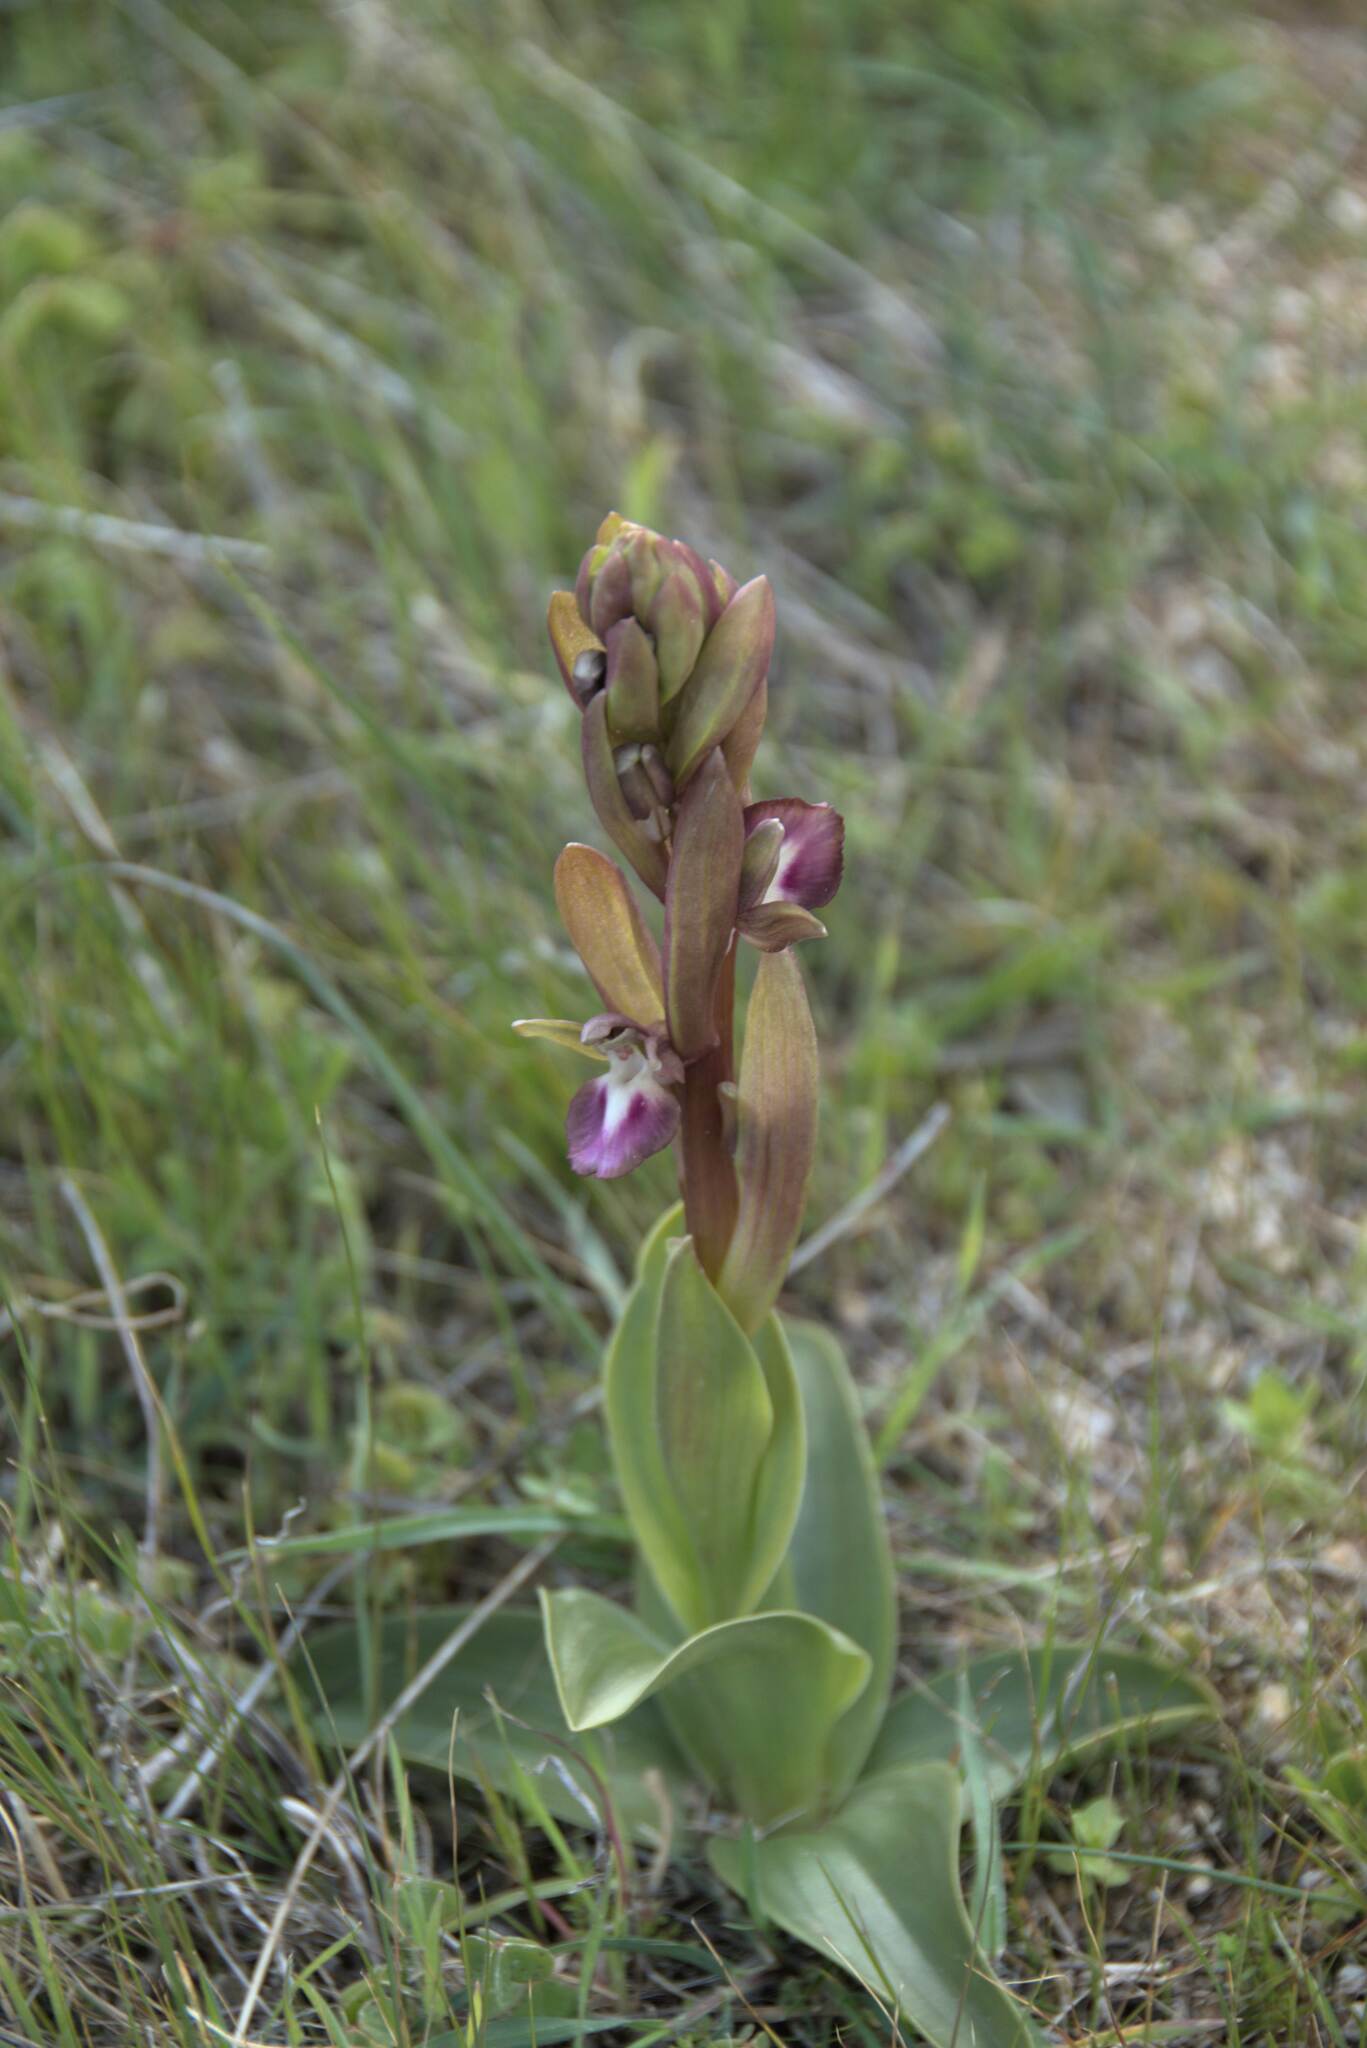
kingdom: Plantae
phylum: Tracheophyta
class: Liliopsida
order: Asparagales
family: Orchidaceae
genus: Anacamptis
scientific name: Anacamptis collina
